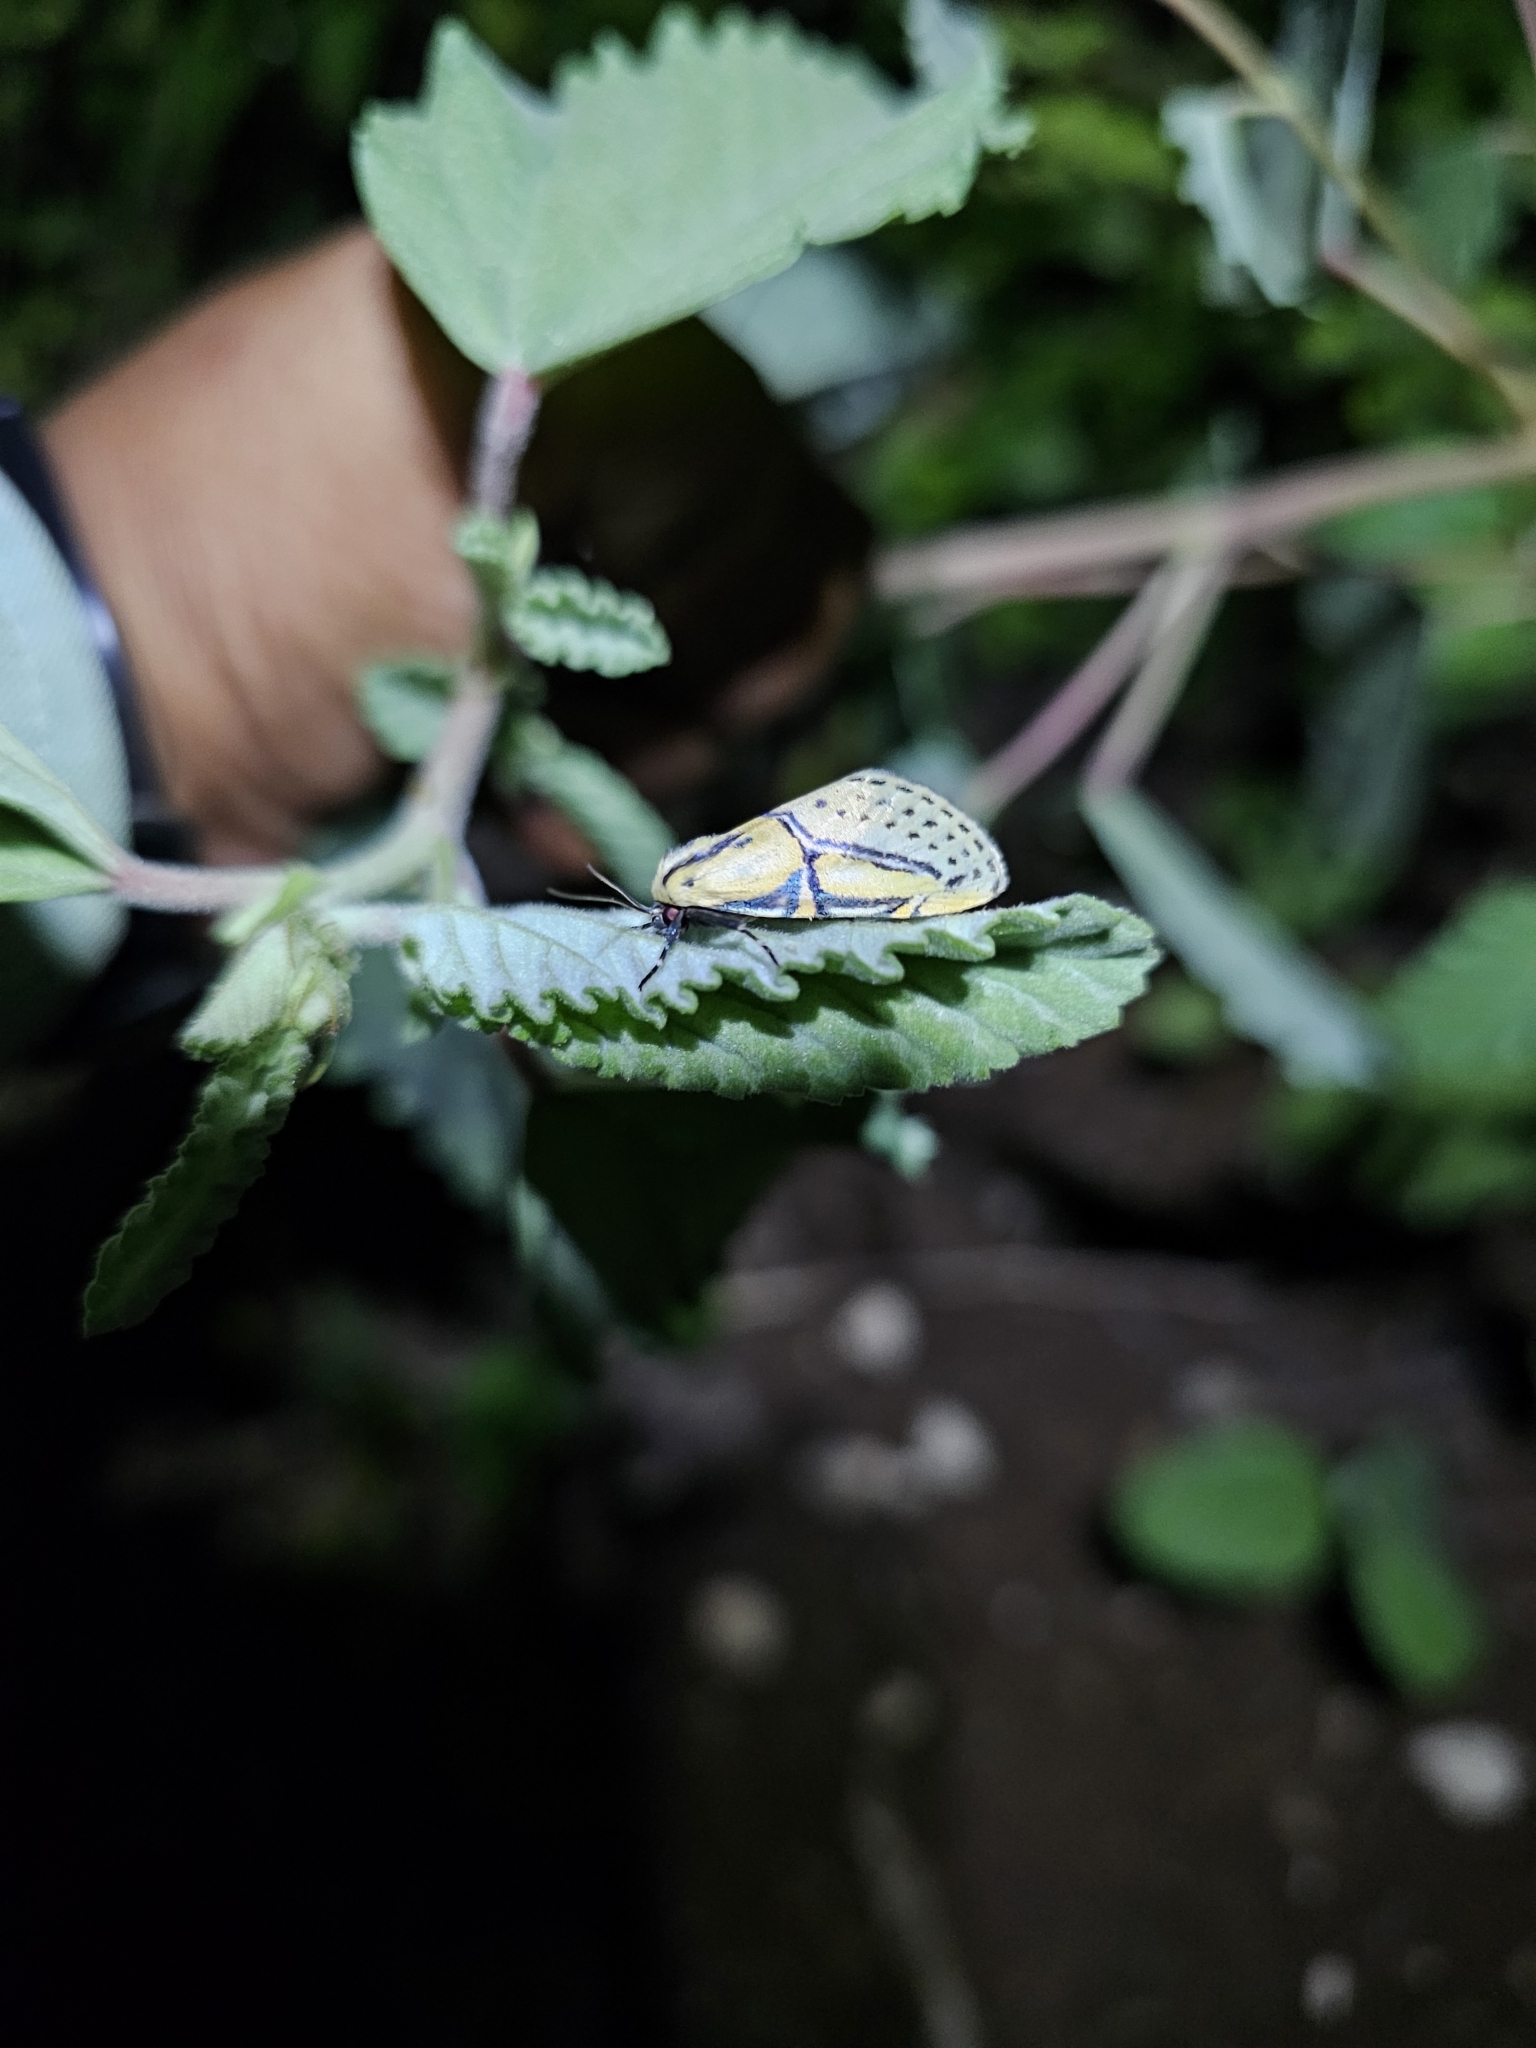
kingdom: Animalia
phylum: Arthropoda
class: Insecta
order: Lepidoptera
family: Erebidae
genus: Diphthera
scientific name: Diphthera festiva
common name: Hieroglyphic moth
